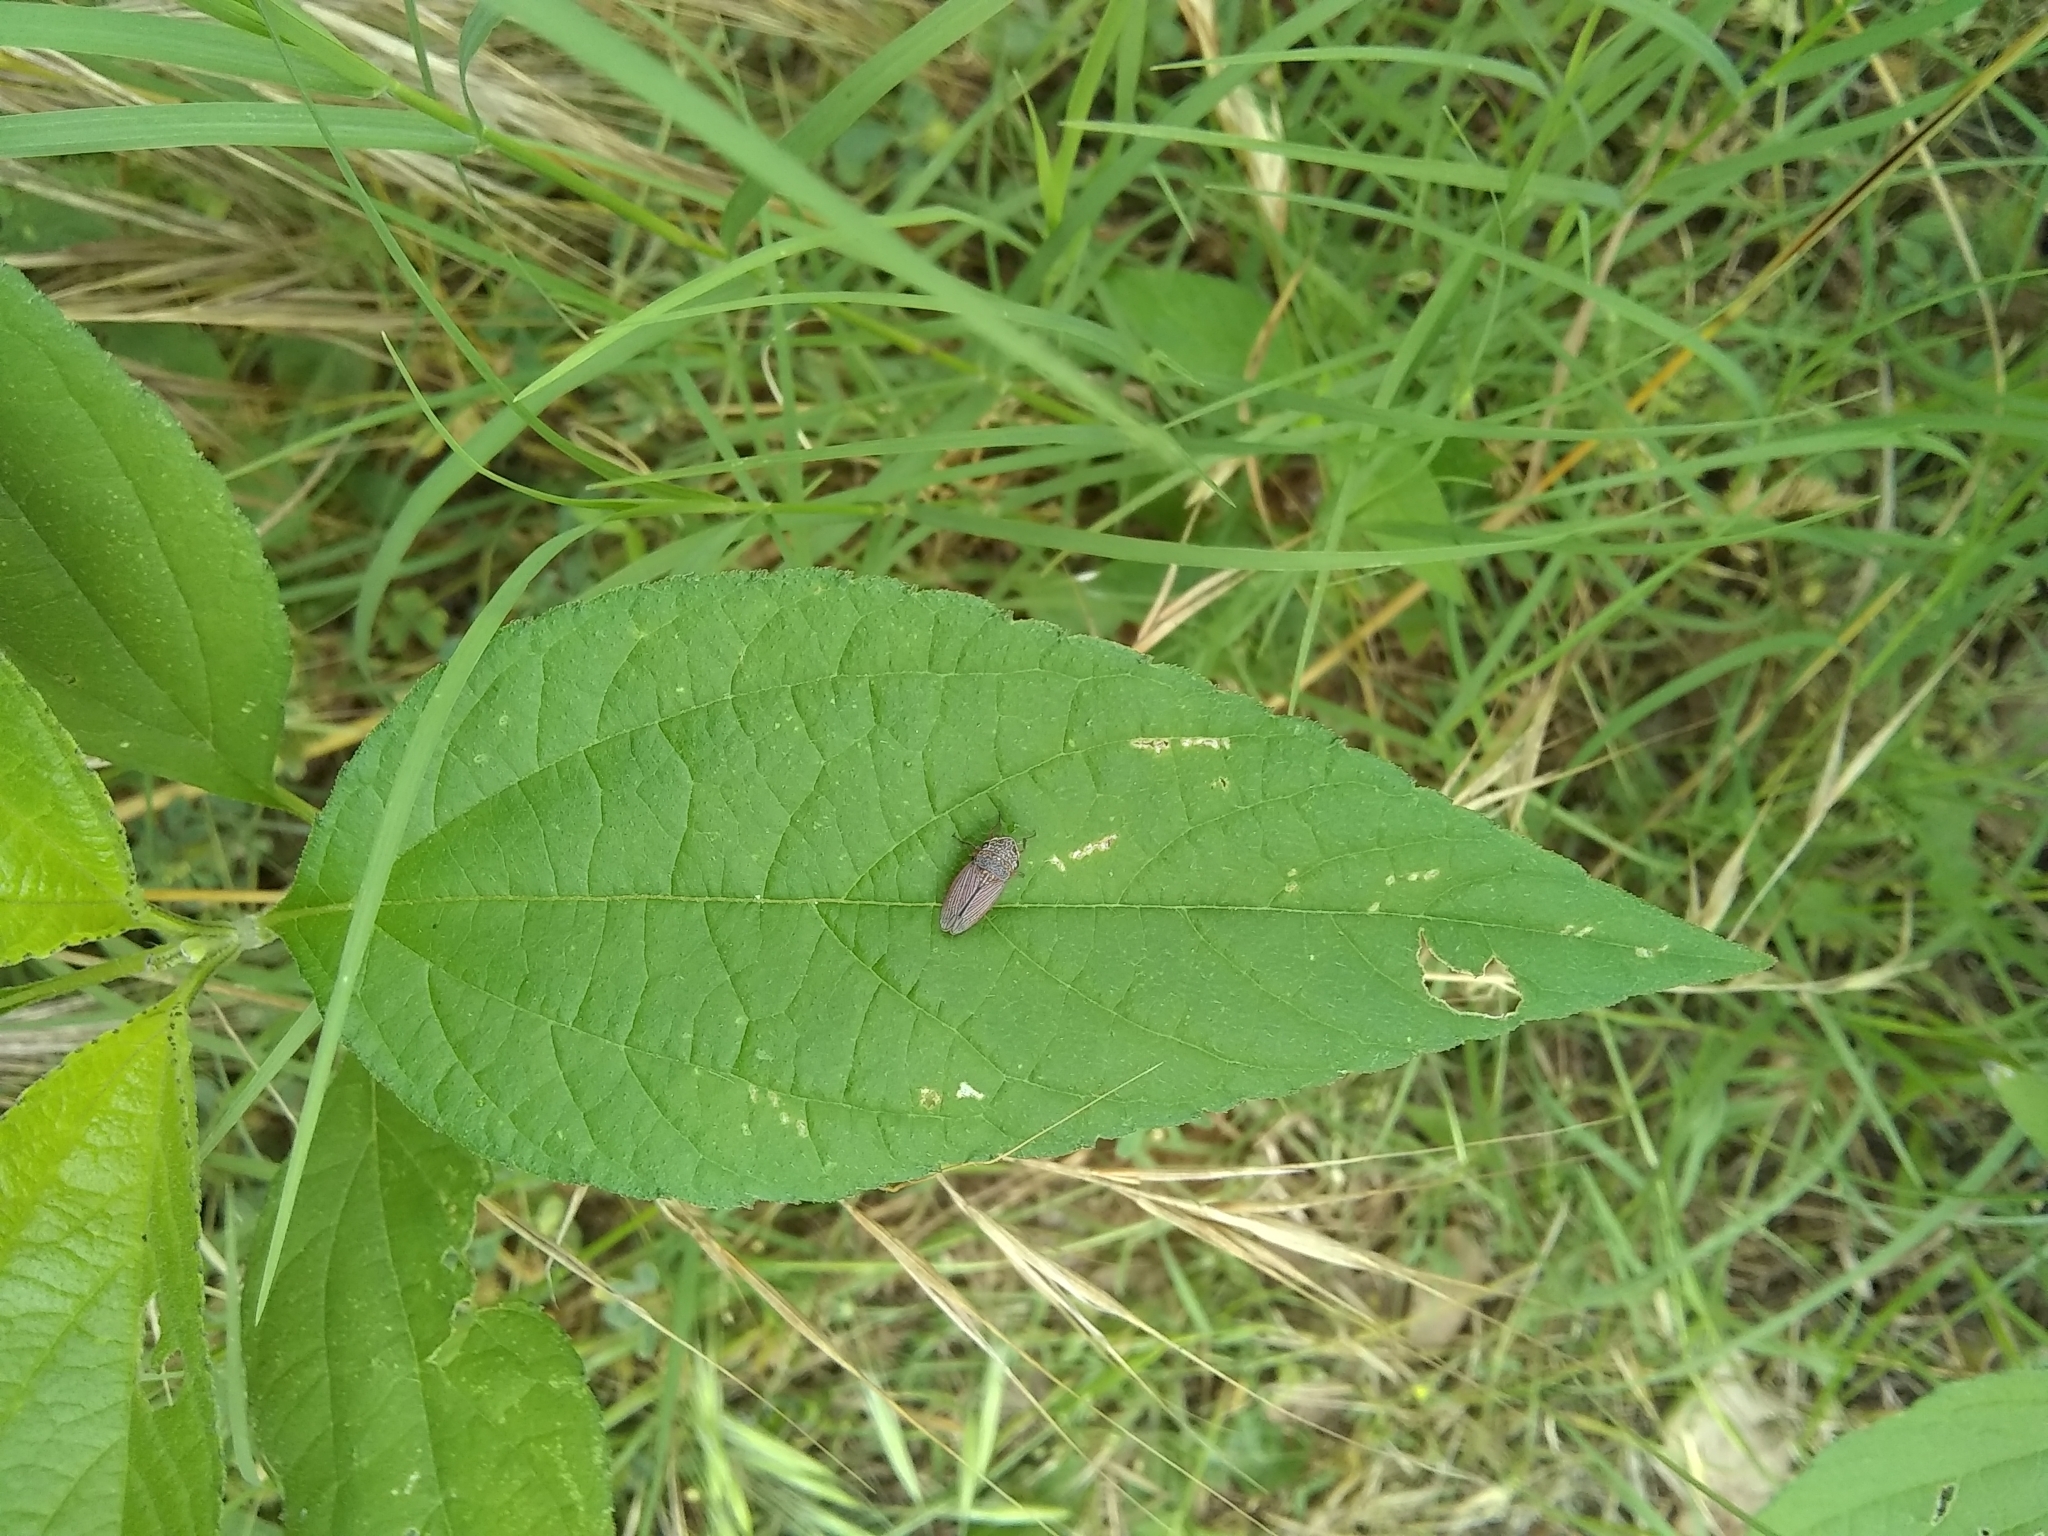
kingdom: Animalia
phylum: Arthropoda
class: Insecta
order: Hemiptera
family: Cicadellidae
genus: Cuerna
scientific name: Cuerna costalis
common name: Lateral-lined sharpshooter
